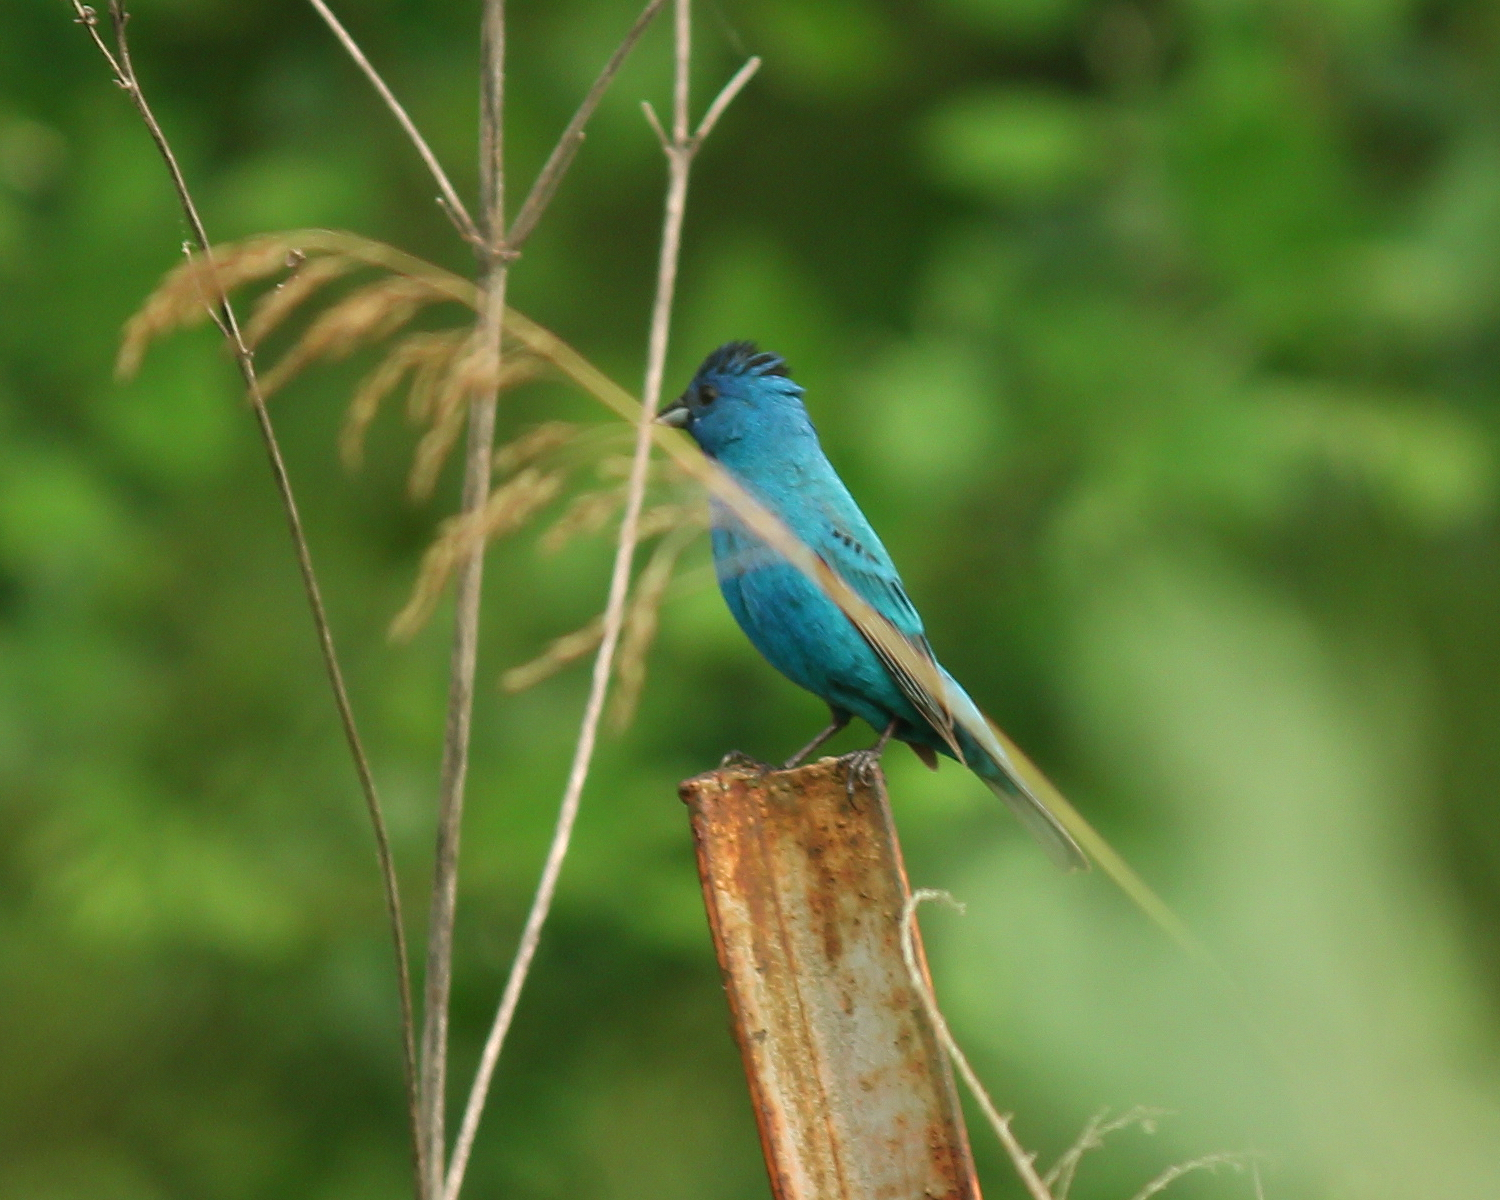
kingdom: Animalia
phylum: Chordata
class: Aves
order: Passeriformes
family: Cardinalidae
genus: Passerina
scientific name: Passerina cyanea
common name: Indigo bunting
